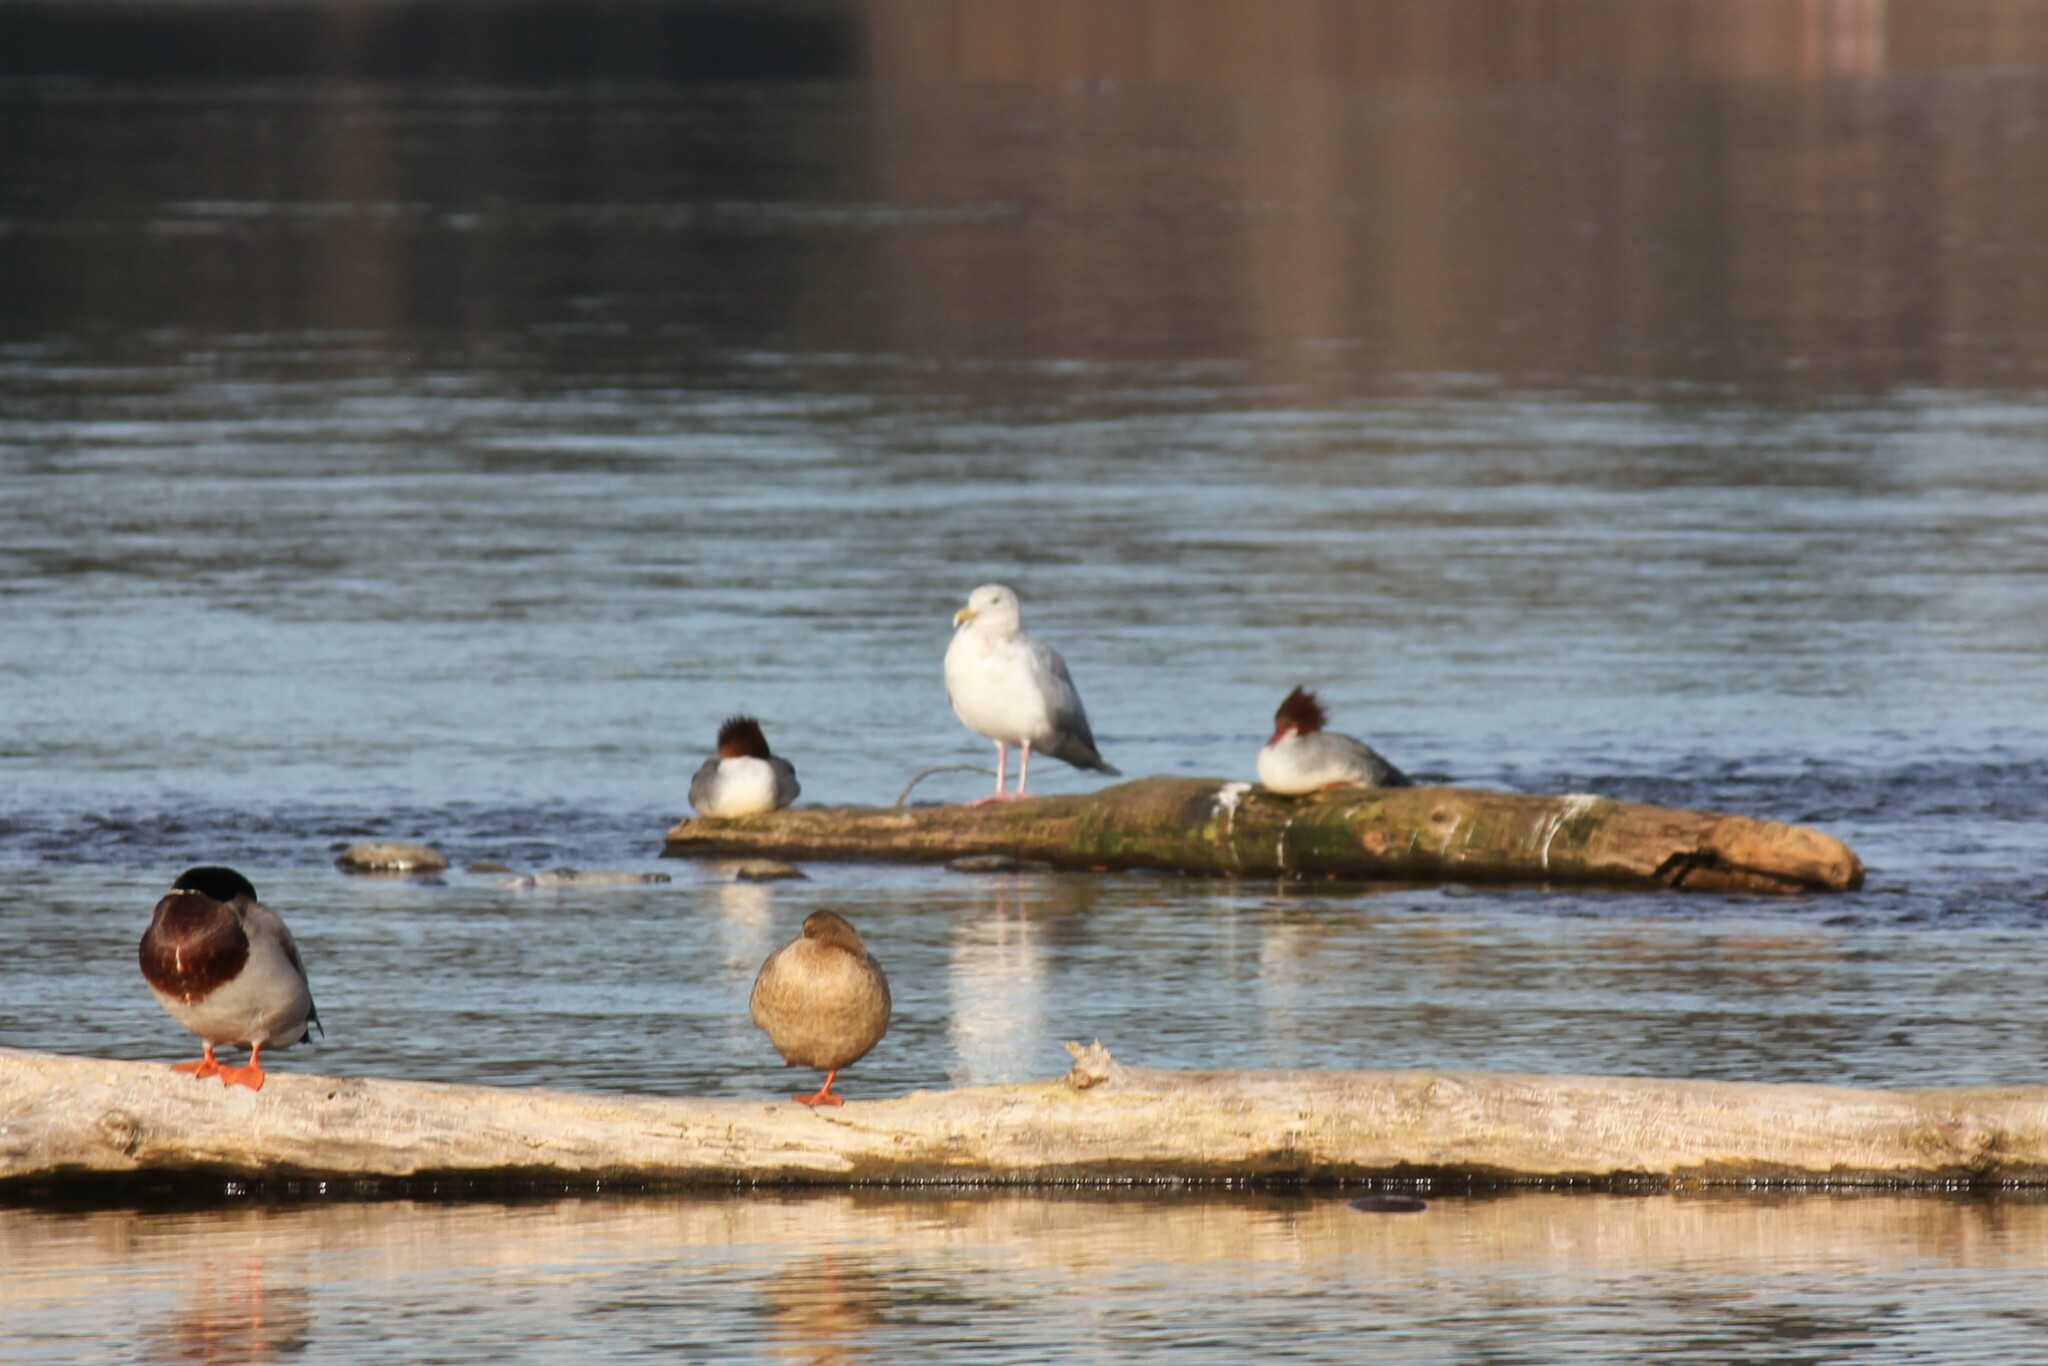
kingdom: Animalia
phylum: Chordata
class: Aves
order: Charadriiformes
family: Laridae
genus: Larus
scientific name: Larus
